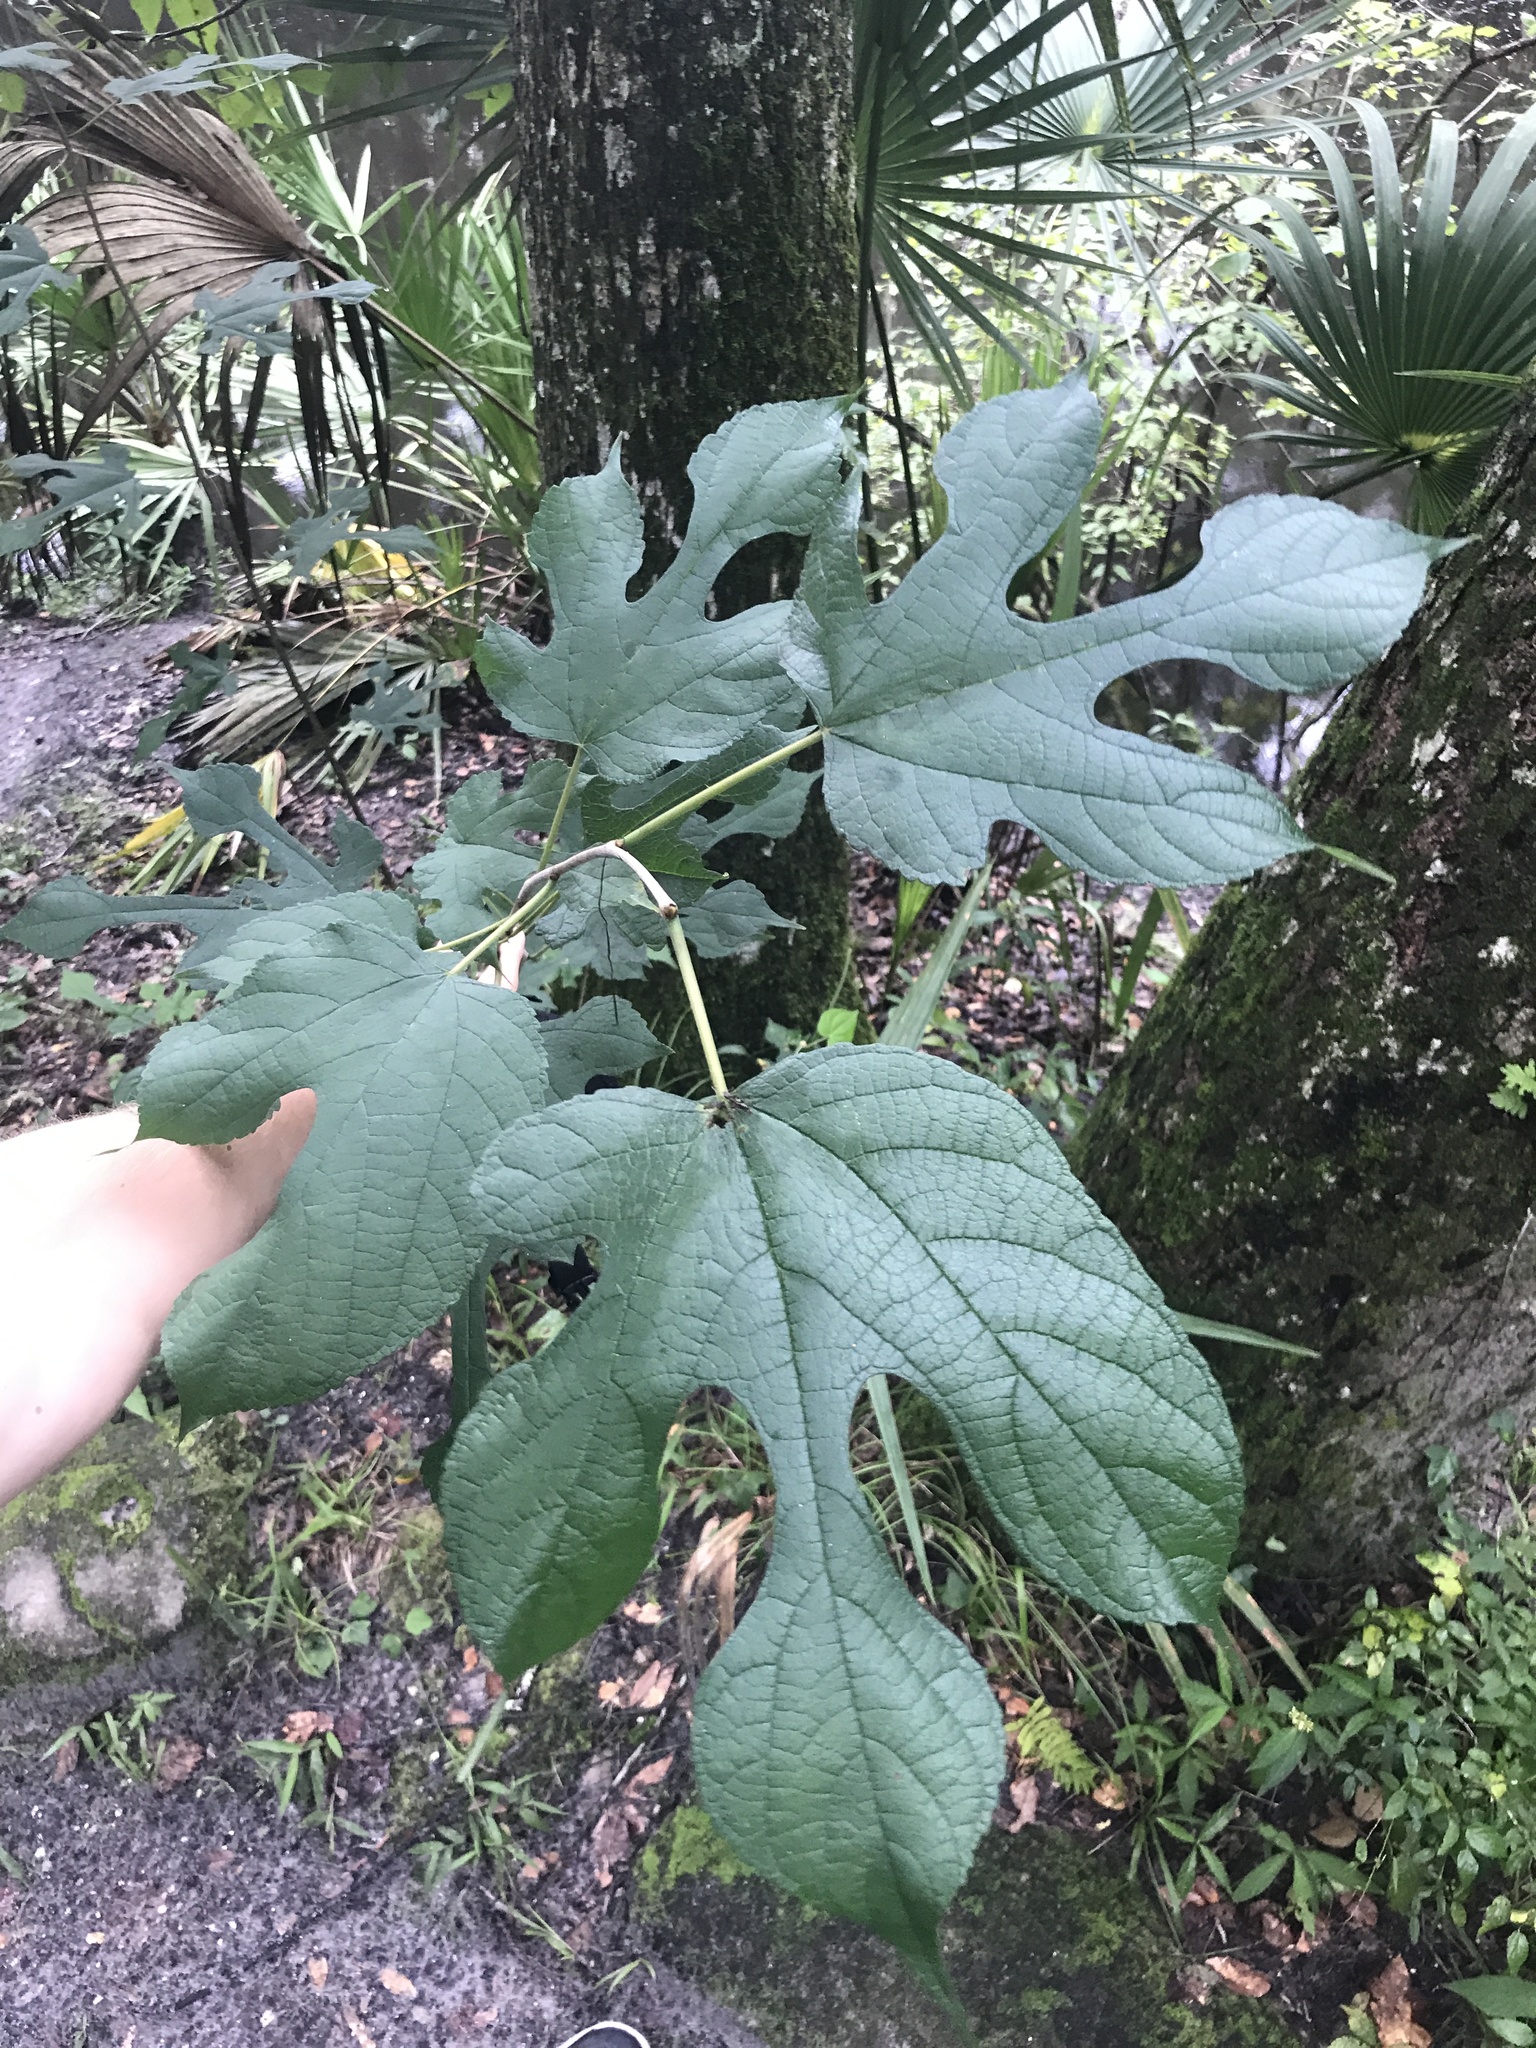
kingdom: Plantae
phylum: Tracheophyta
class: Magnoliopsida
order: Rosales
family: Moraceae
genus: Morus
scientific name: Morus rubra
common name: Red mulberry
